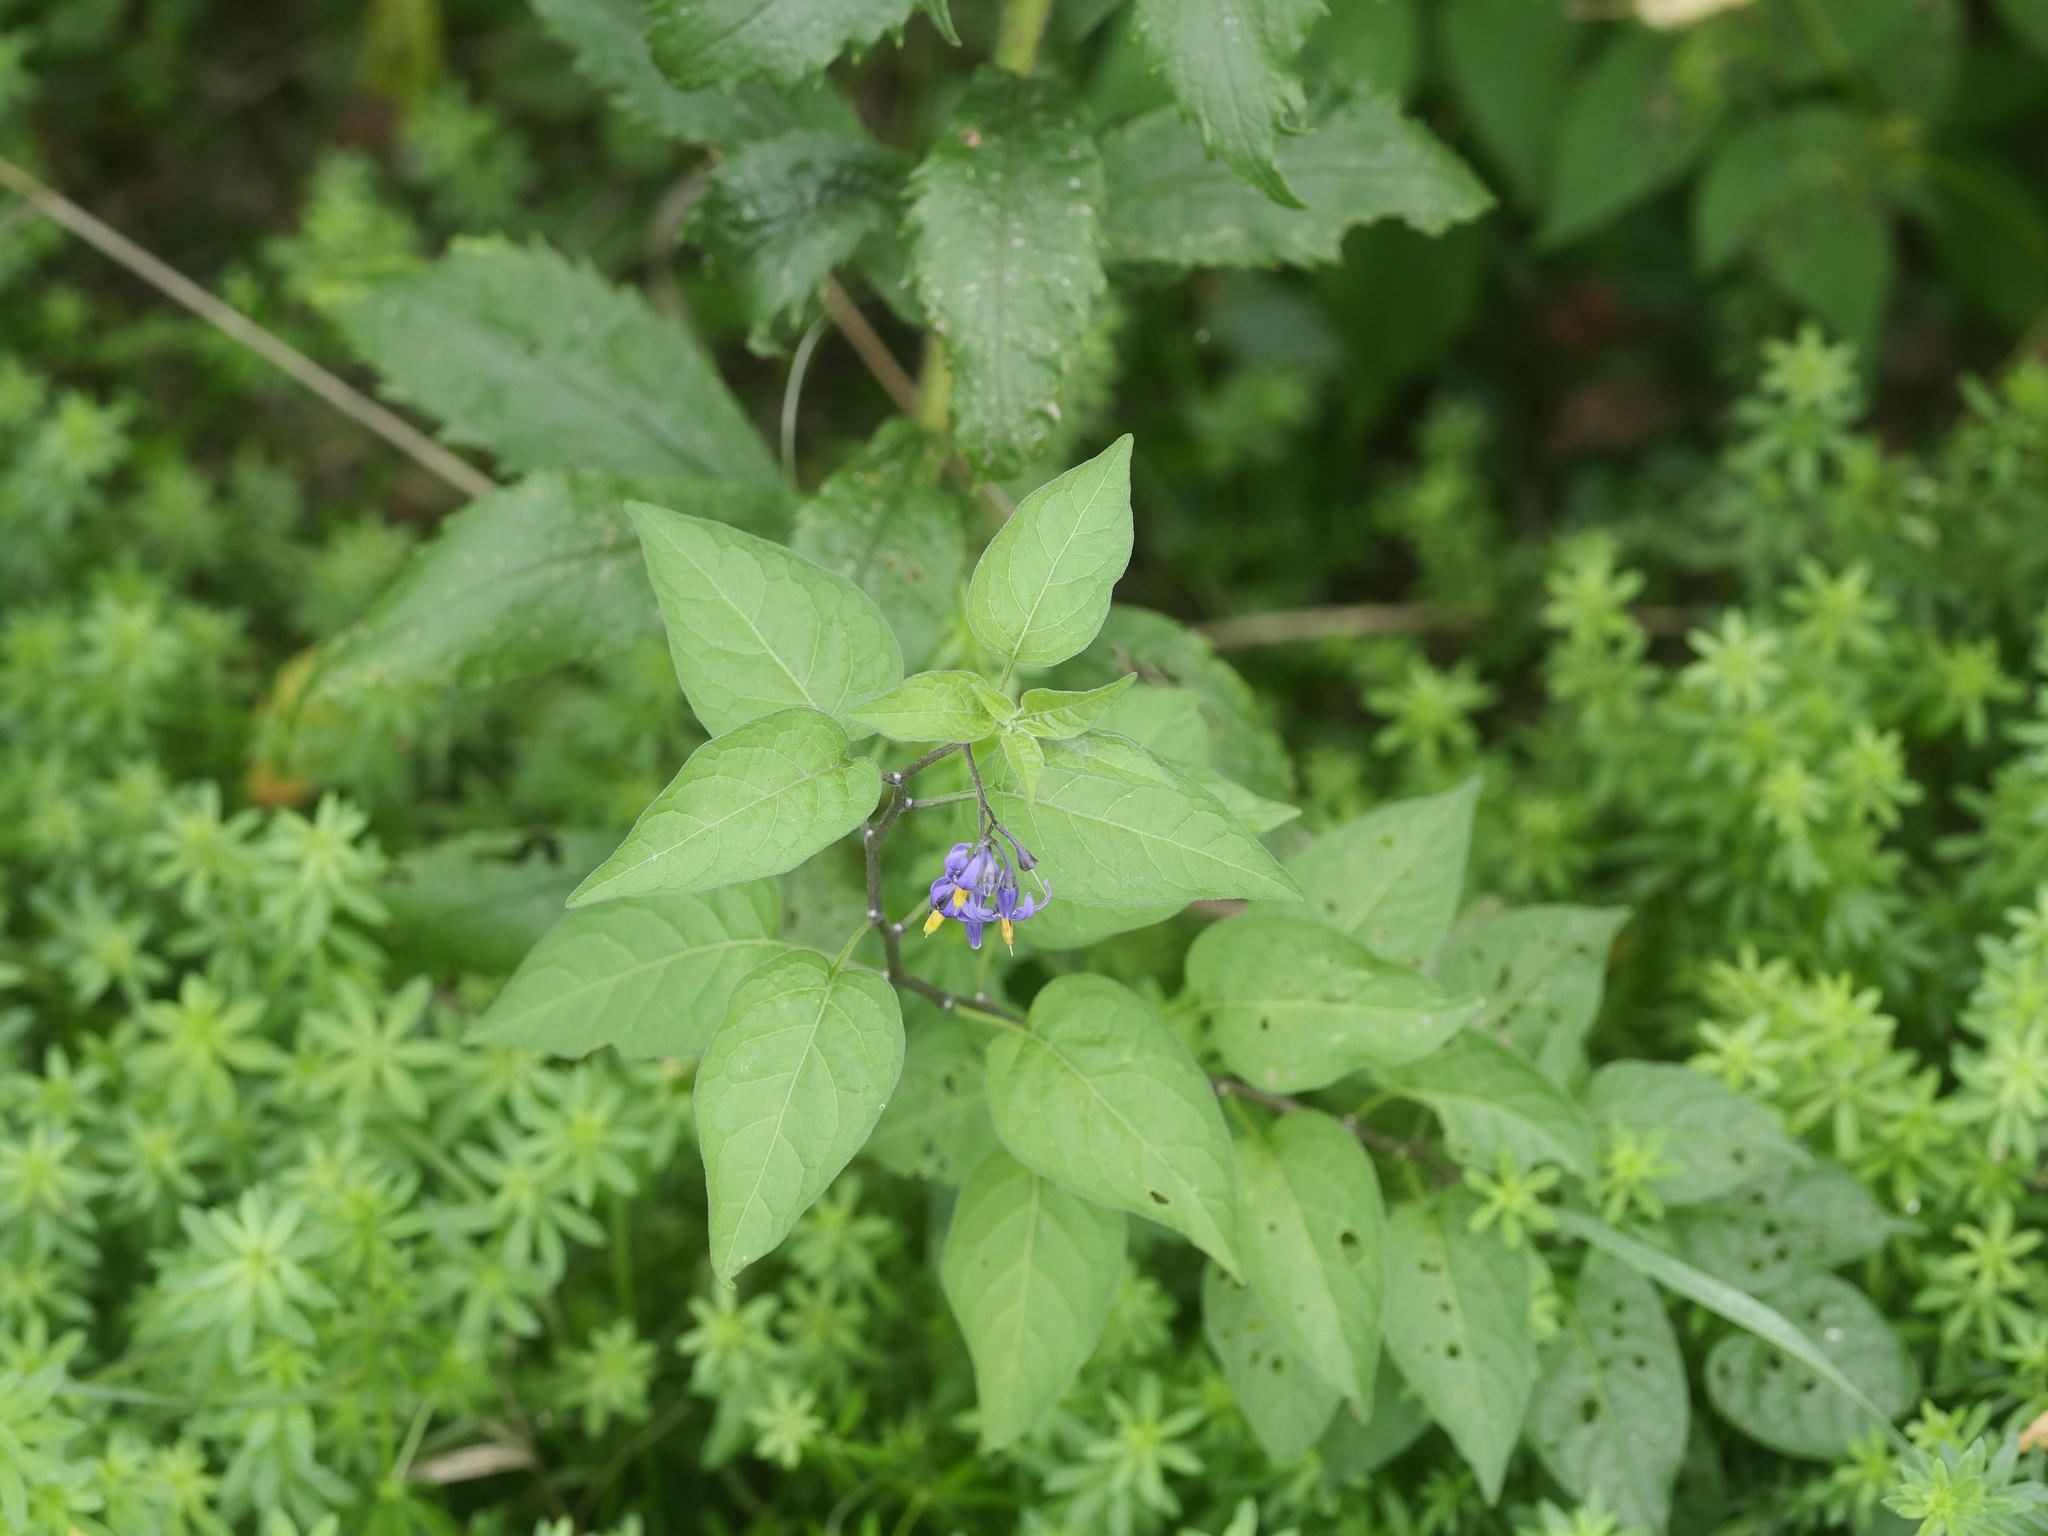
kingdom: Plantae
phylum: Tracheophyta
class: Magnoliopsida
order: Solanales
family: Solanaceae
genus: Solanum
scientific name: Solanum dulcamara
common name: Climbing nightshade
